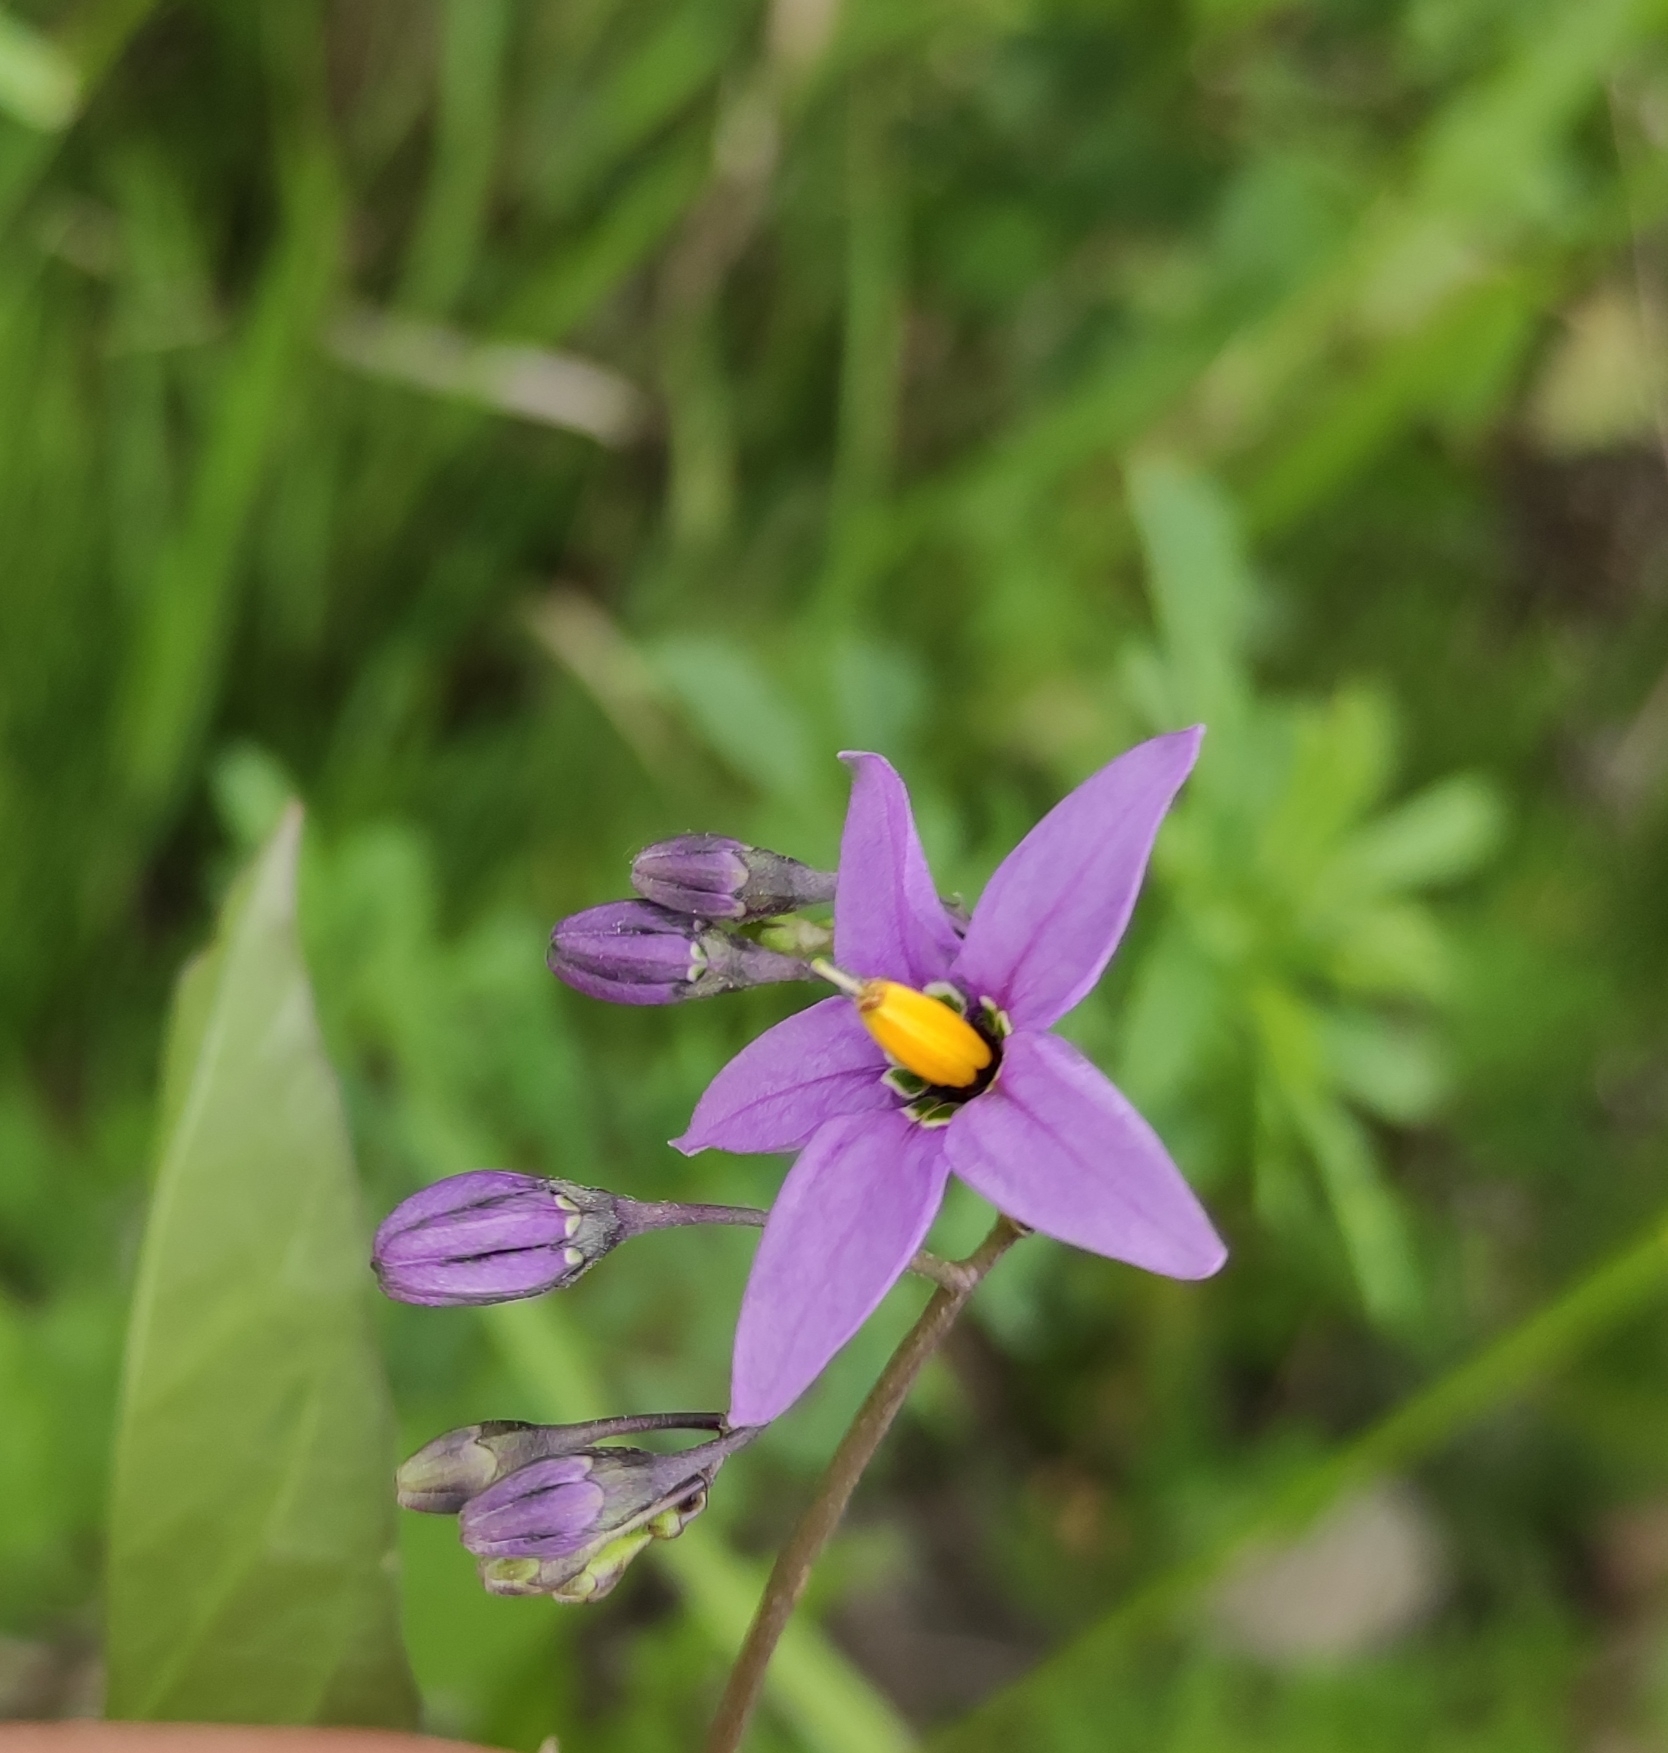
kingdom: Plantae
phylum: Tracheophyta
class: Magnoliopsida
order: Solanales
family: Solanaceae
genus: Solanum
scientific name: Solanum dulcamara
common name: Climbing nightshade
